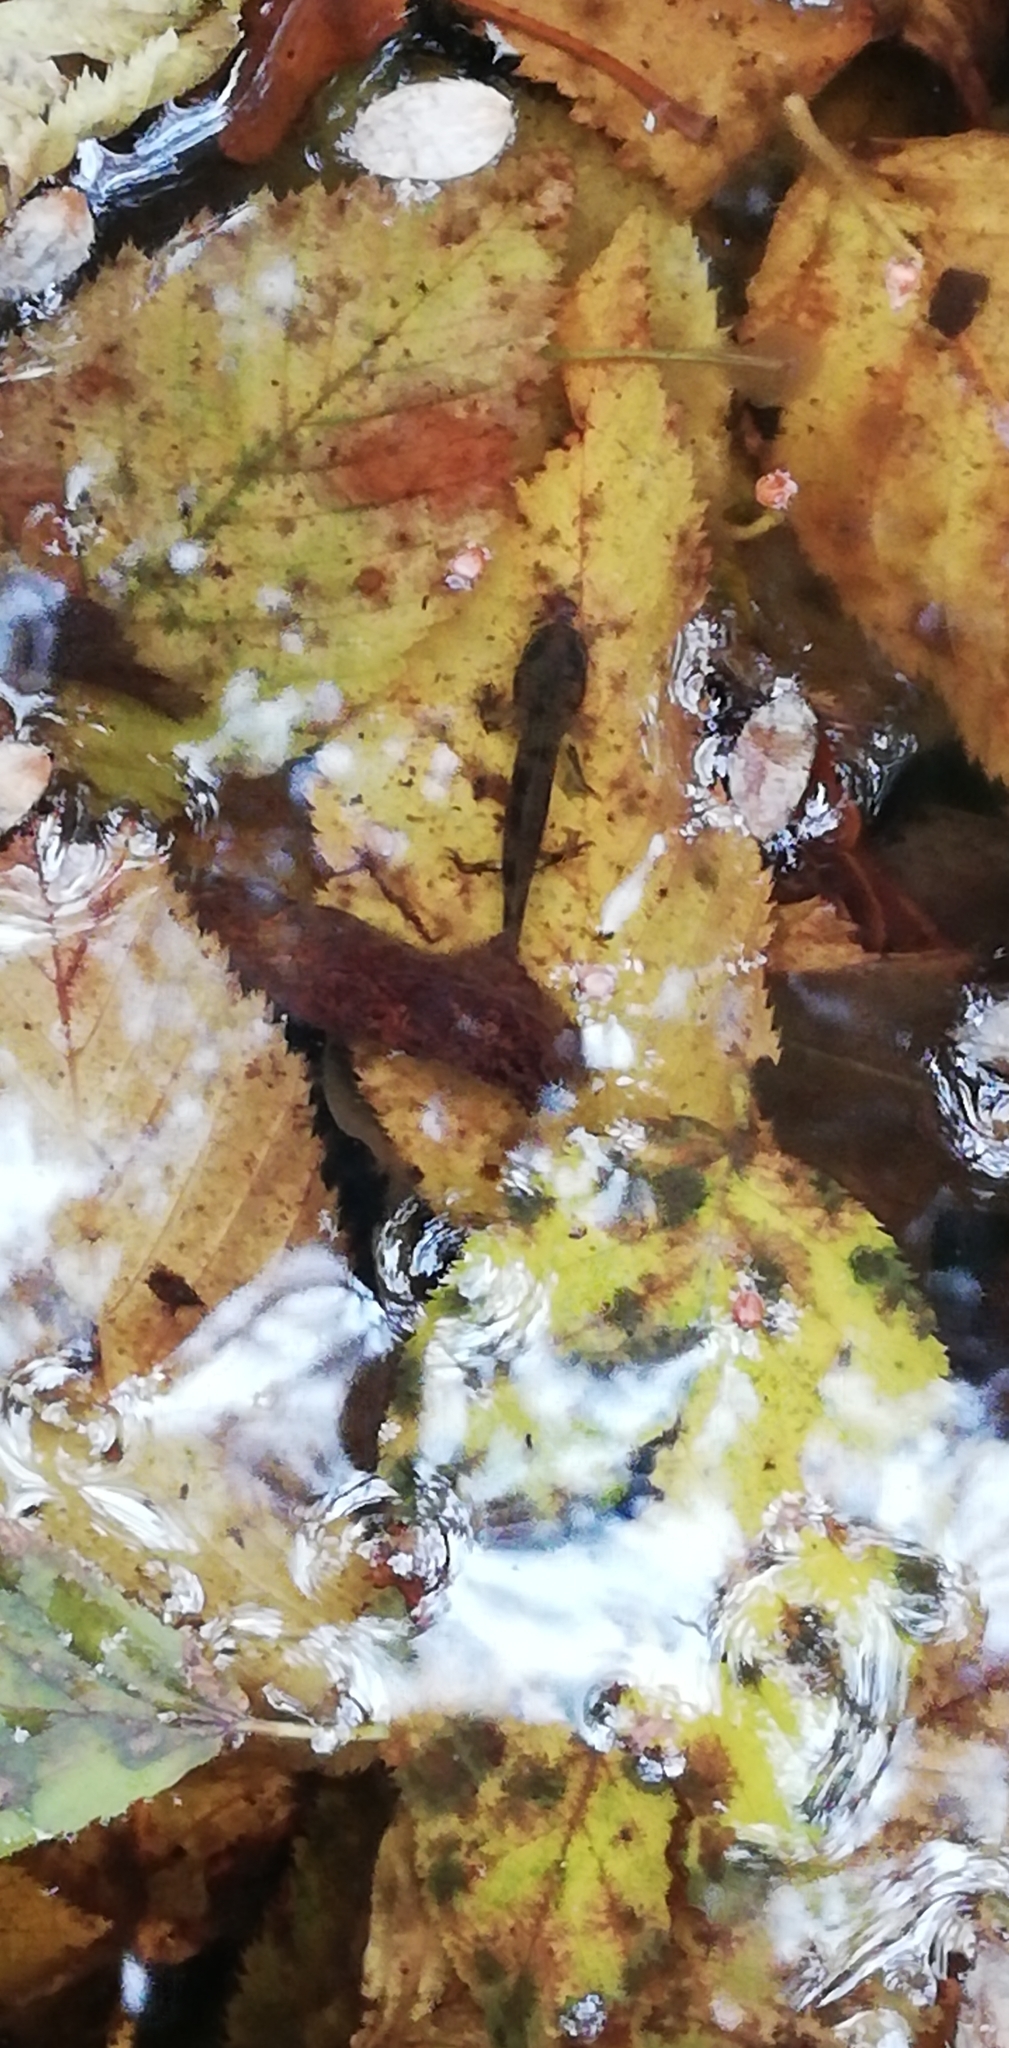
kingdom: Animalia
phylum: Chordata
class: Amphibia
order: Caudata
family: Salamandridae
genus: Salamandra
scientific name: Salamandra salamandra
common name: Fire salamander
